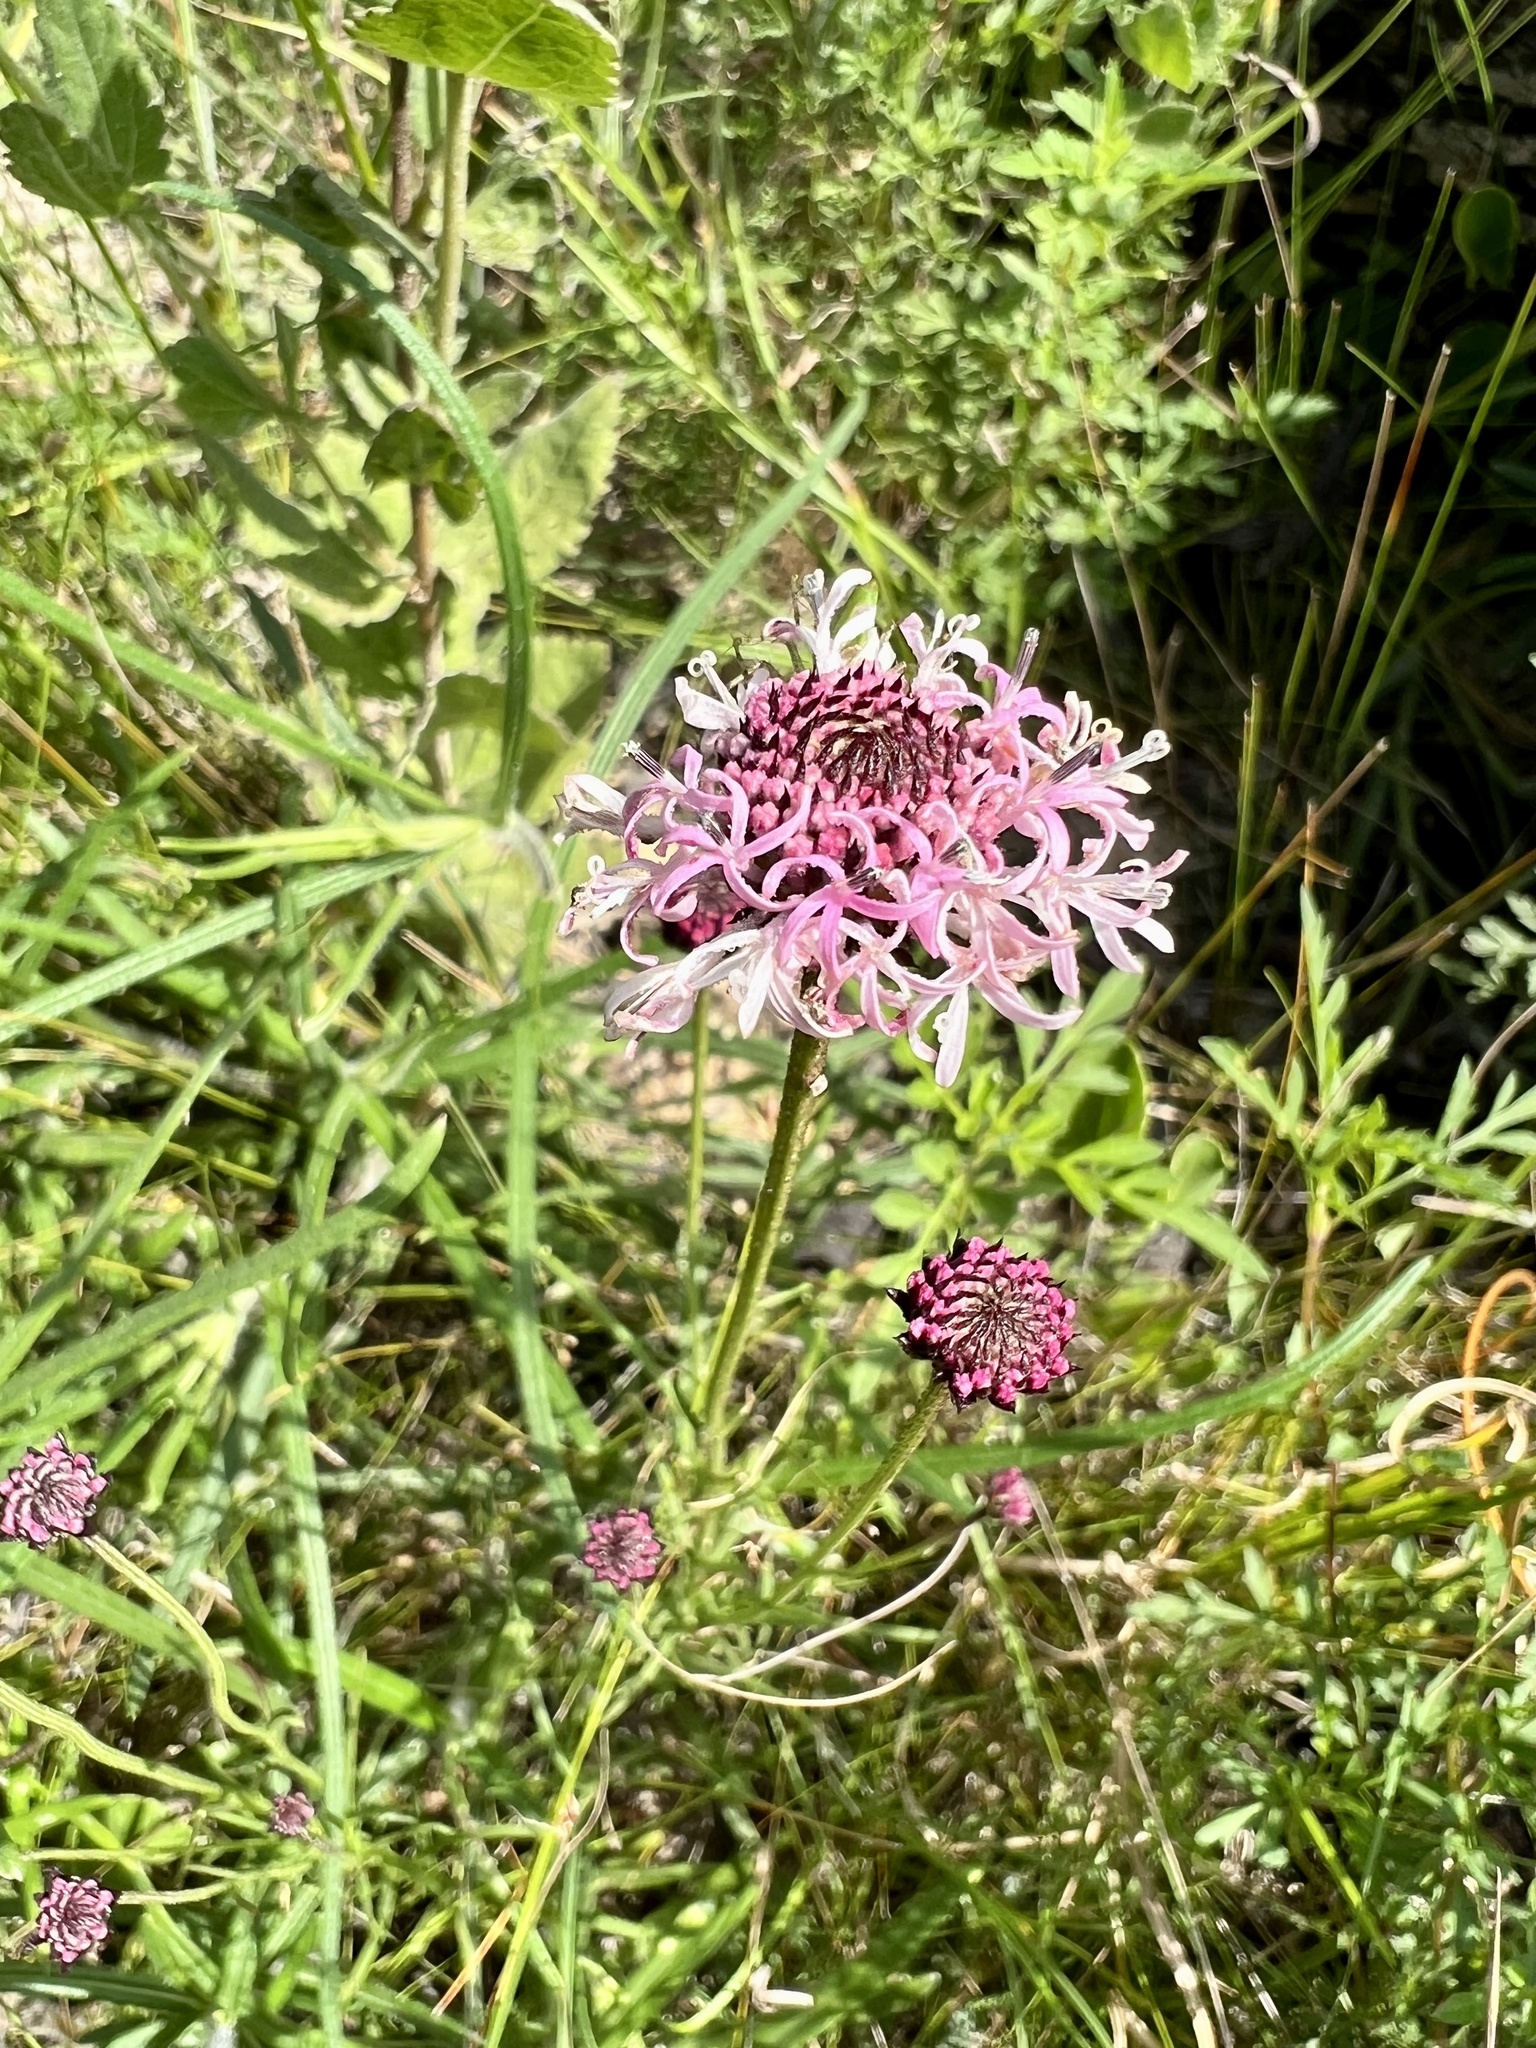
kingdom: Plantae
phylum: Tracheophyta
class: Magnoliopsida
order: Asterales
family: Asteraceae
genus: Marshallia
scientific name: Marshallia graminifolia
